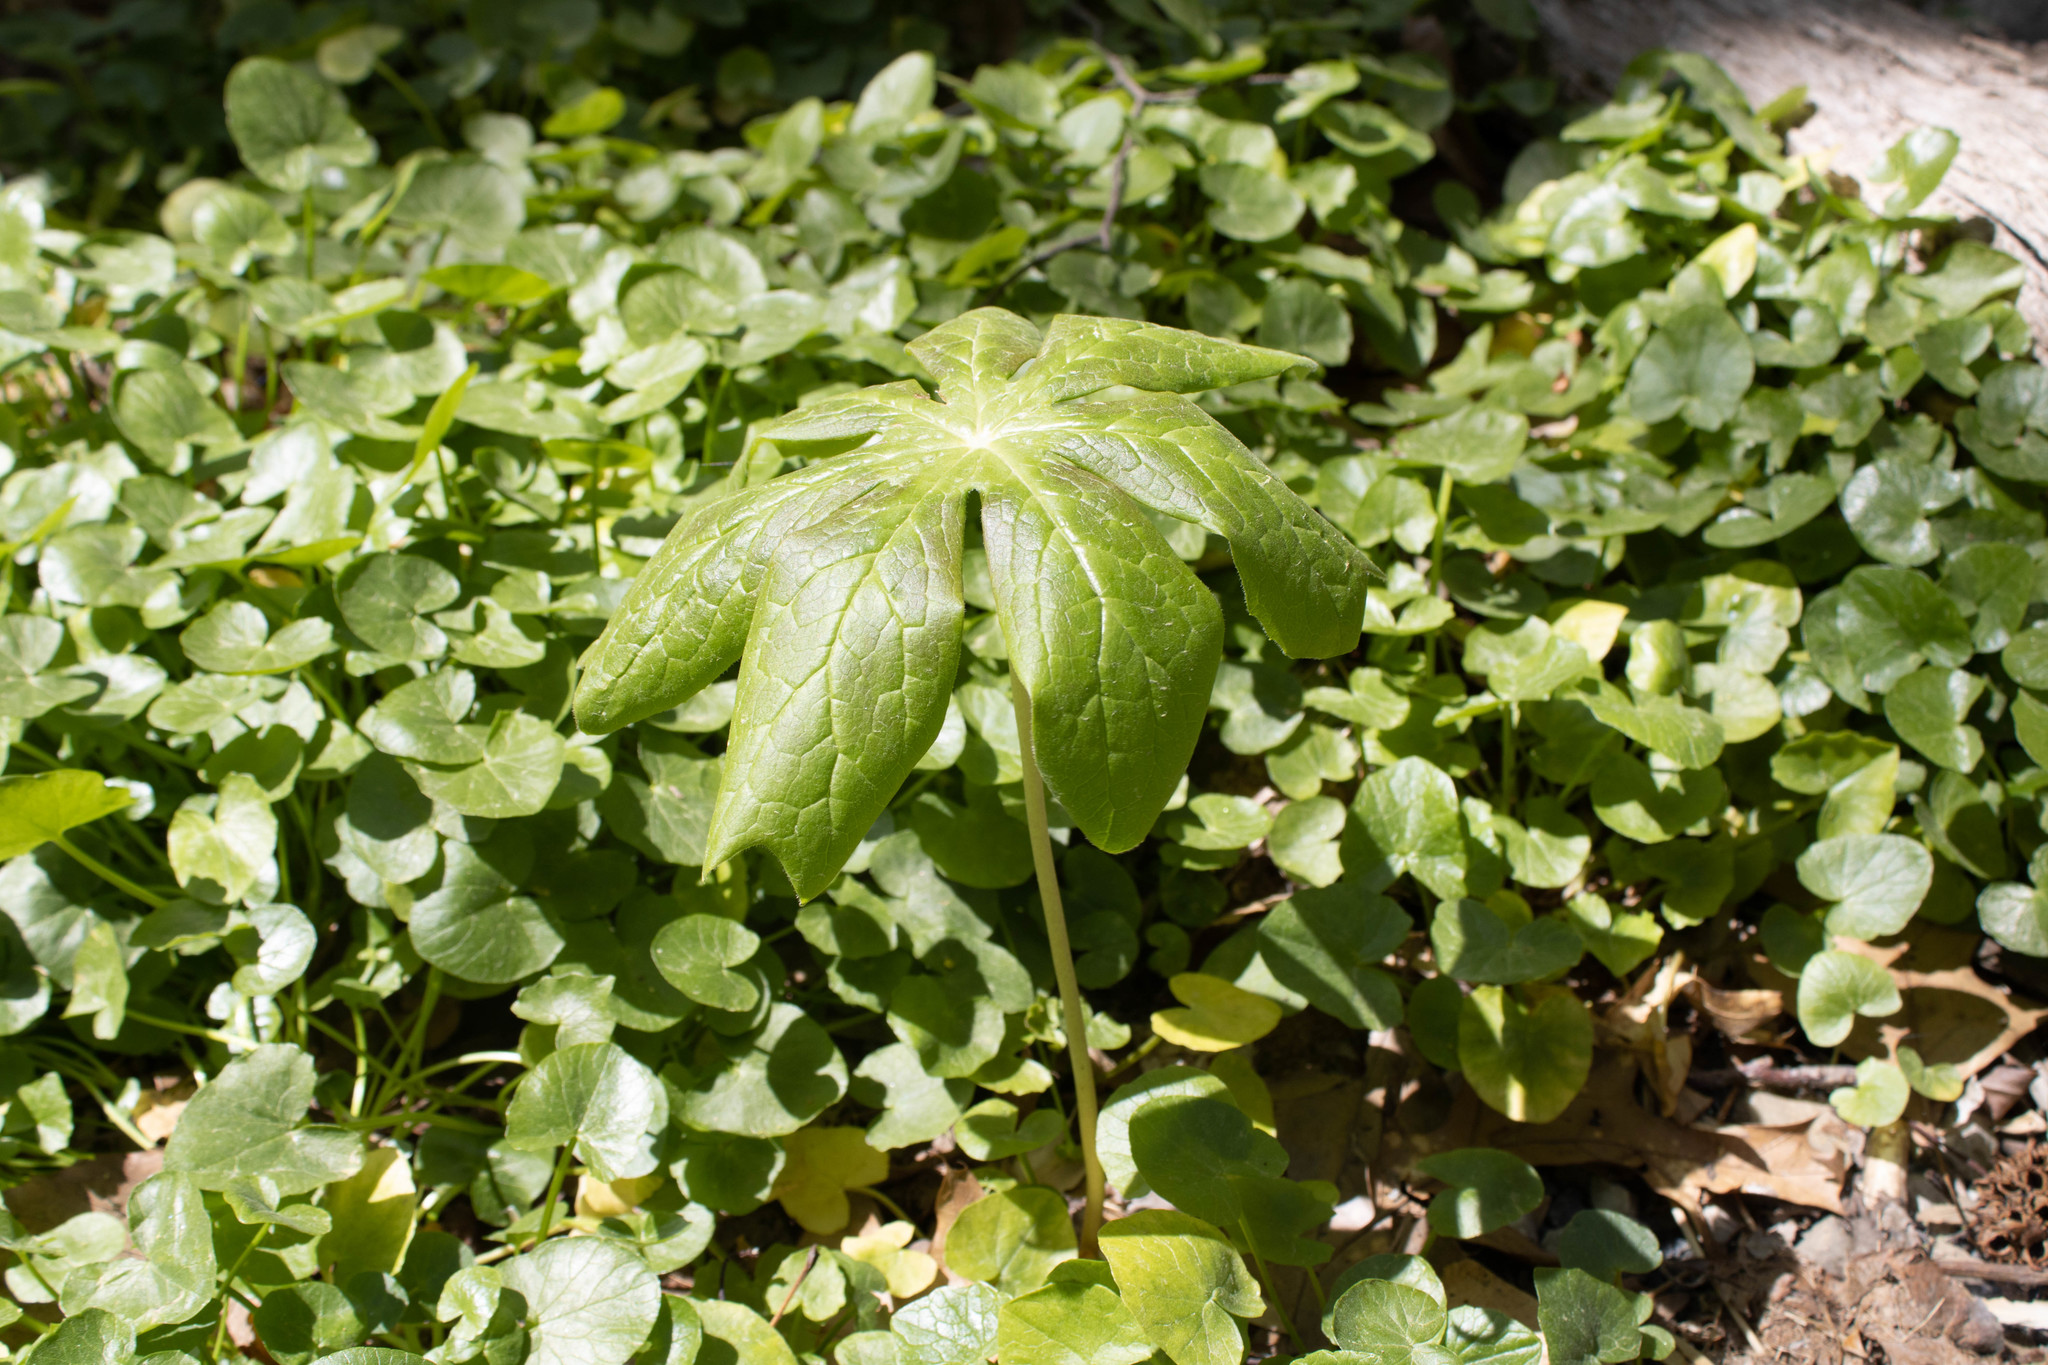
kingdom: Plantae
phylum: Tracheophyta
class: Magnoliopsida
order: Ranunculales
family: Berberidaceae
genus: Podophyllum
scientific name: Podophyllum peltatum
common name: Wild mandrake
